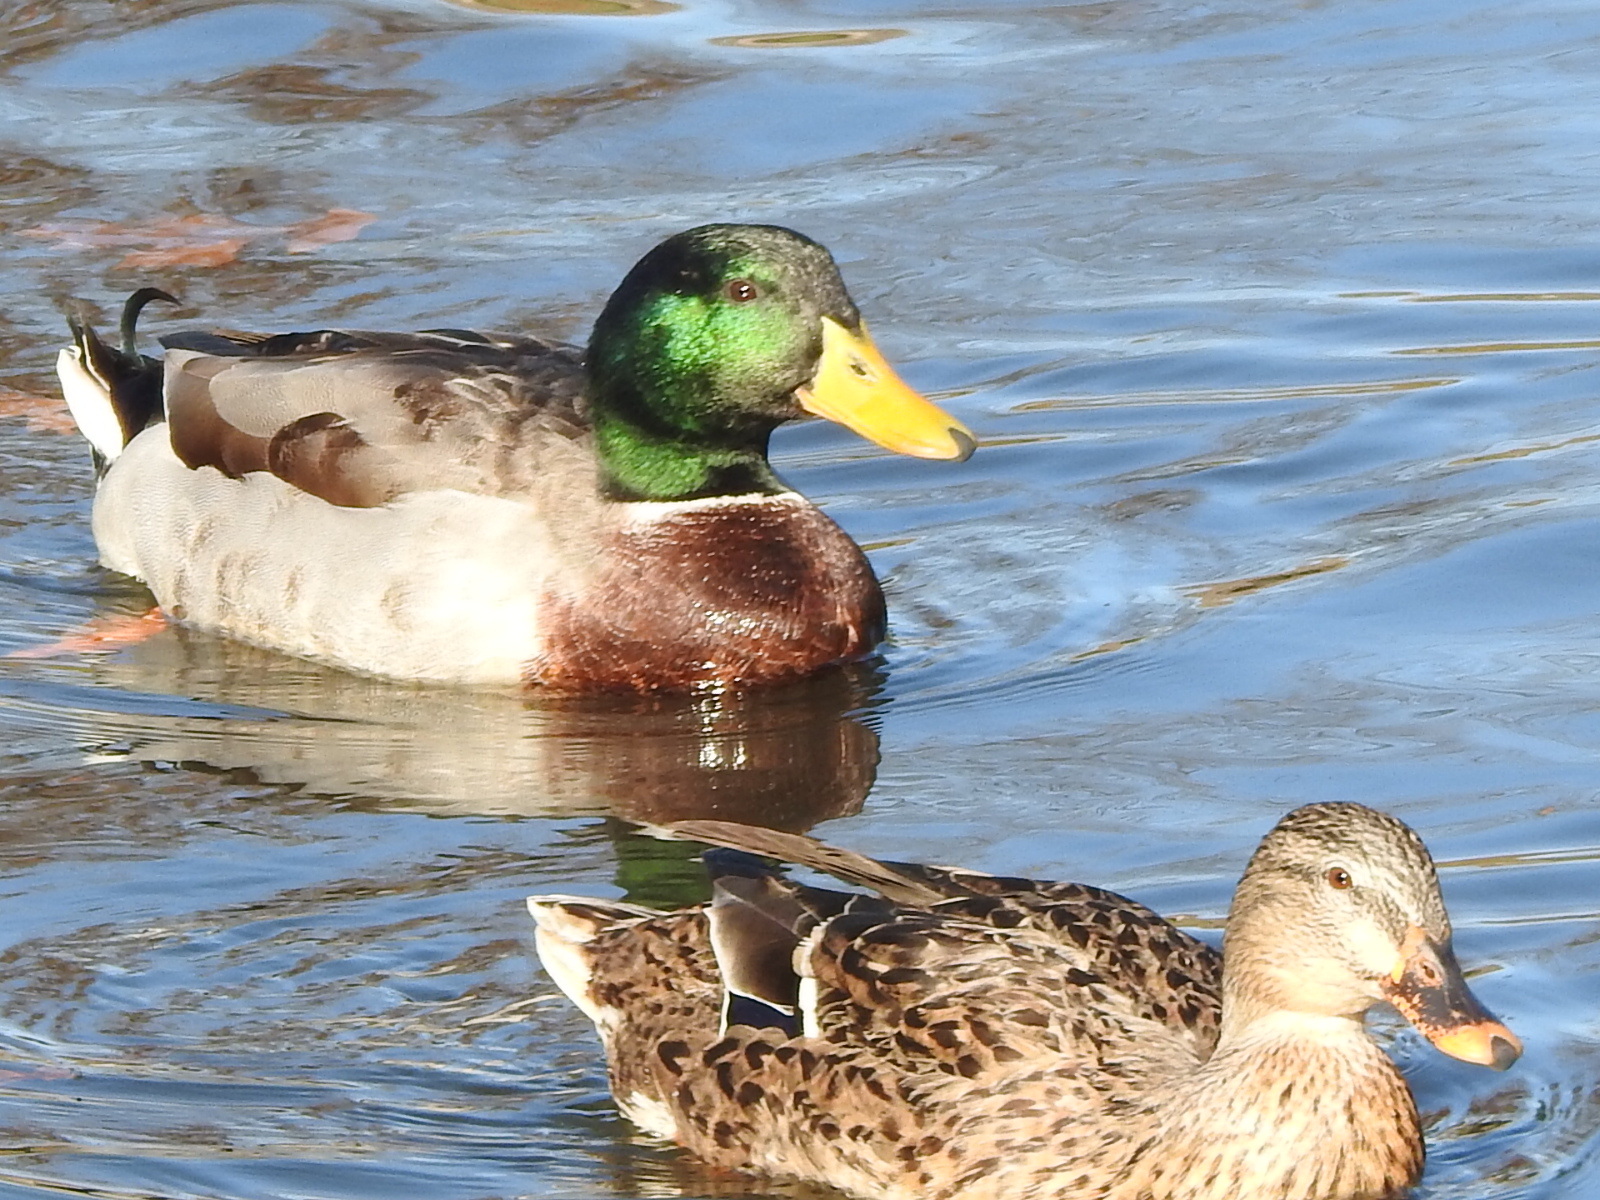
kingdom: Animalia
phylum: Chordata
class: Aves
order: Anseriformes
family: Anatidae
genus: Anas
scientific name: Anas platyrhynchos
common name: Mallard
